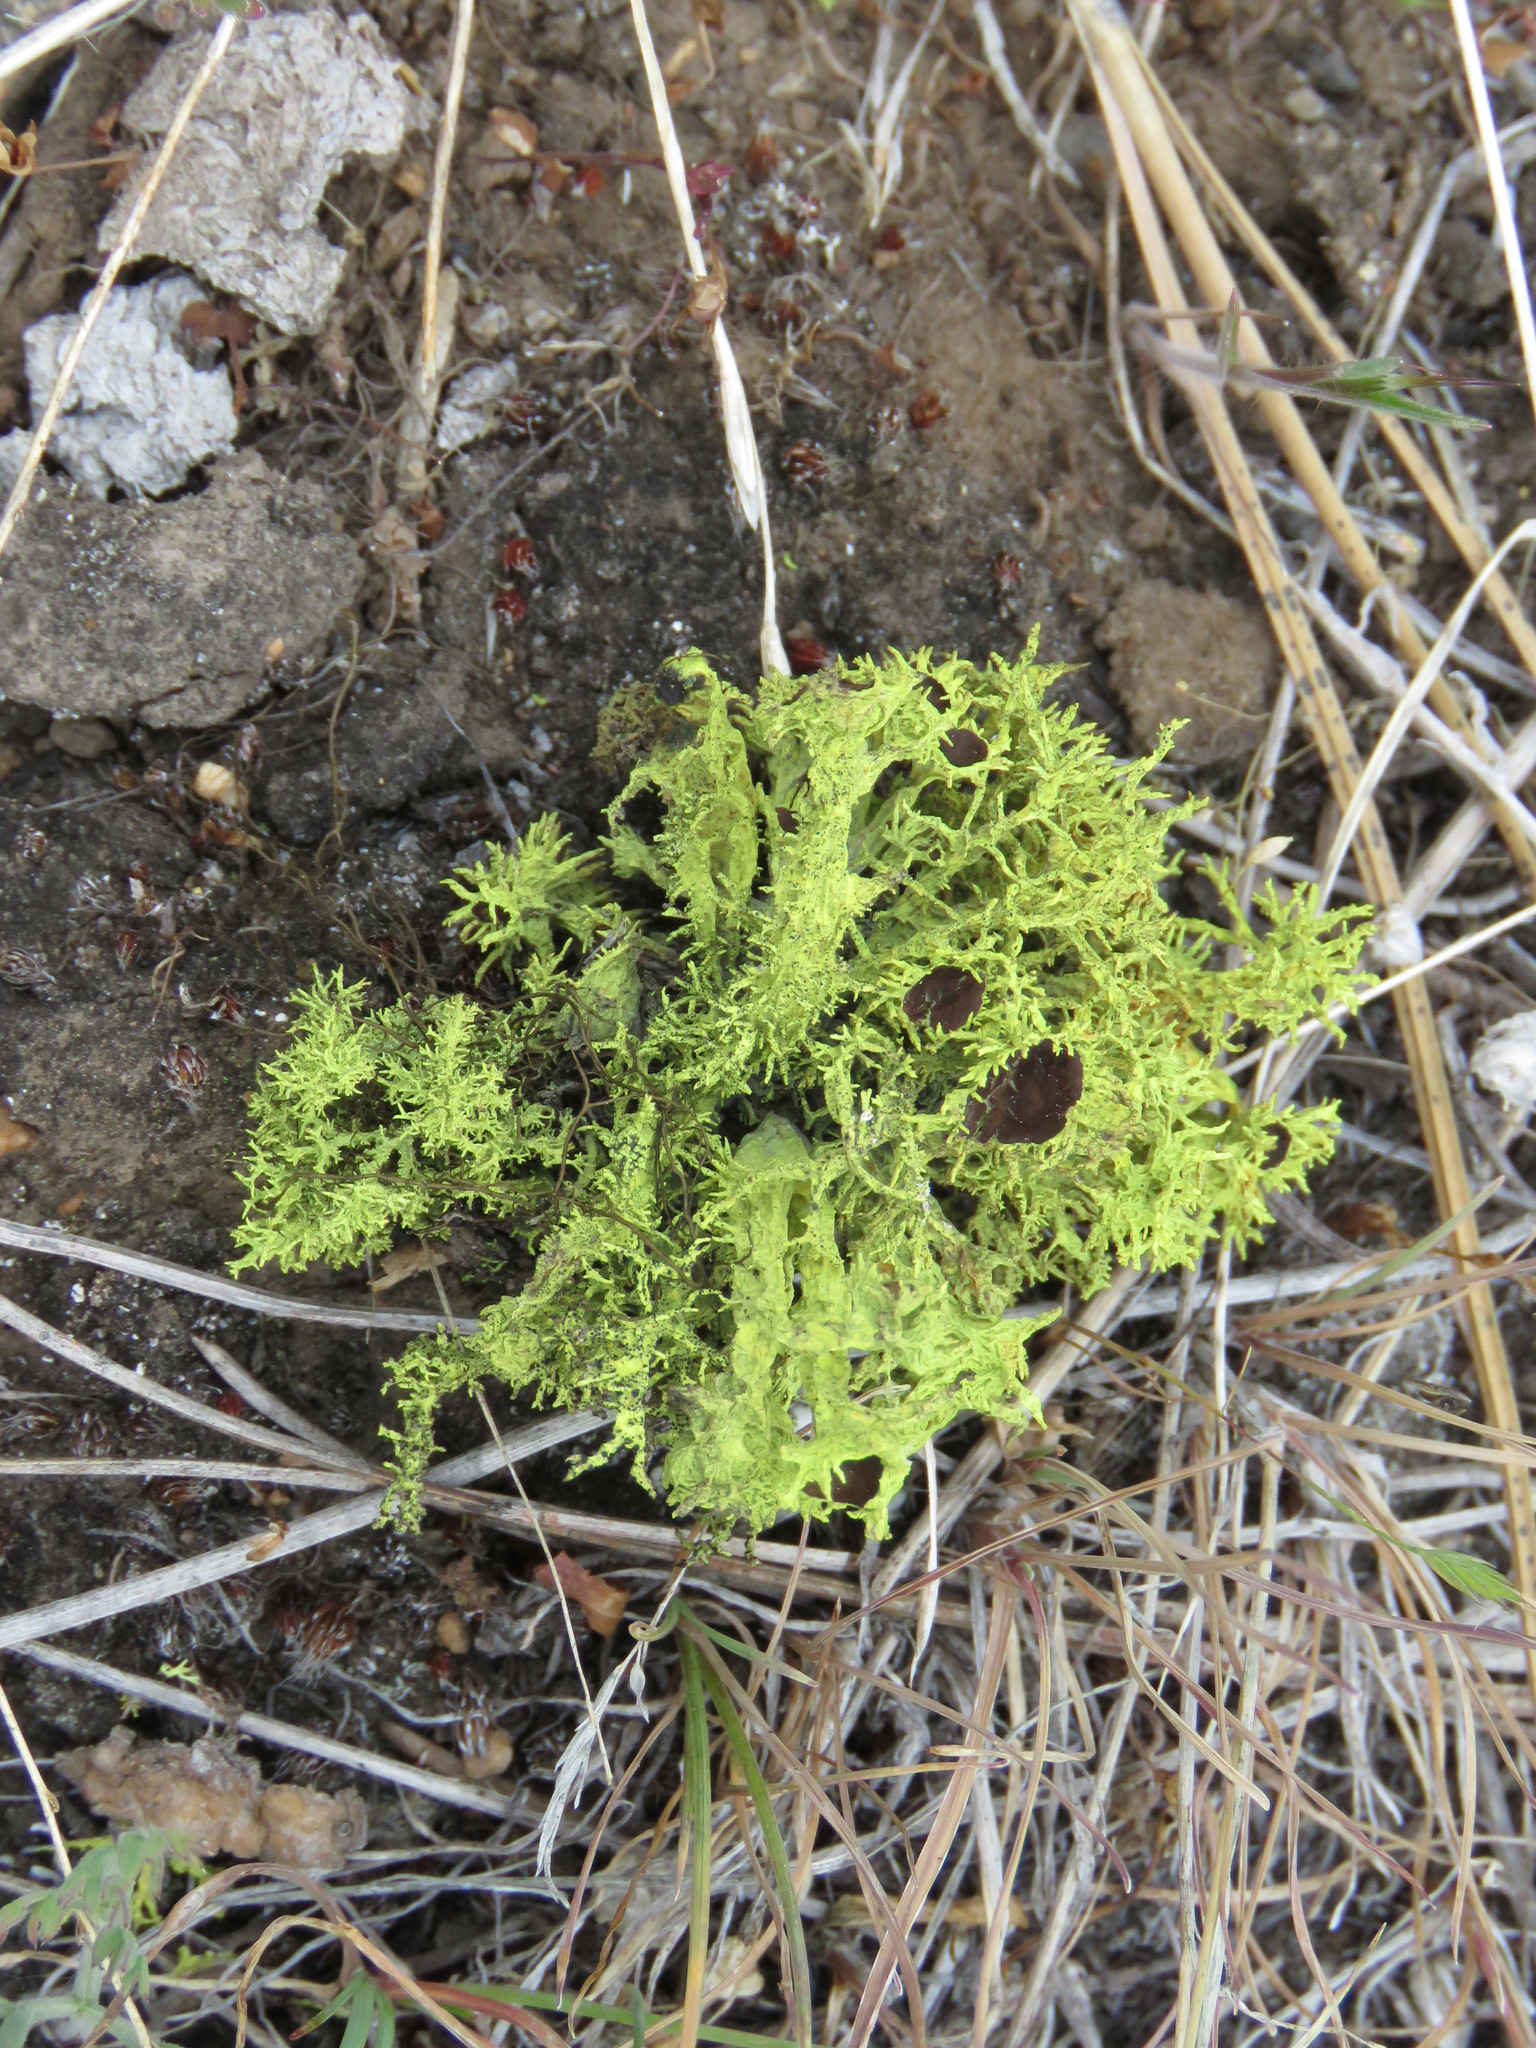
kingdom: Fungi
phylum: Ascomycota
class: Lecanoromycetes
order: Lecanorales
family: Parmeliaceae
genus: Letharia
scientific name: Letharia columbiana
